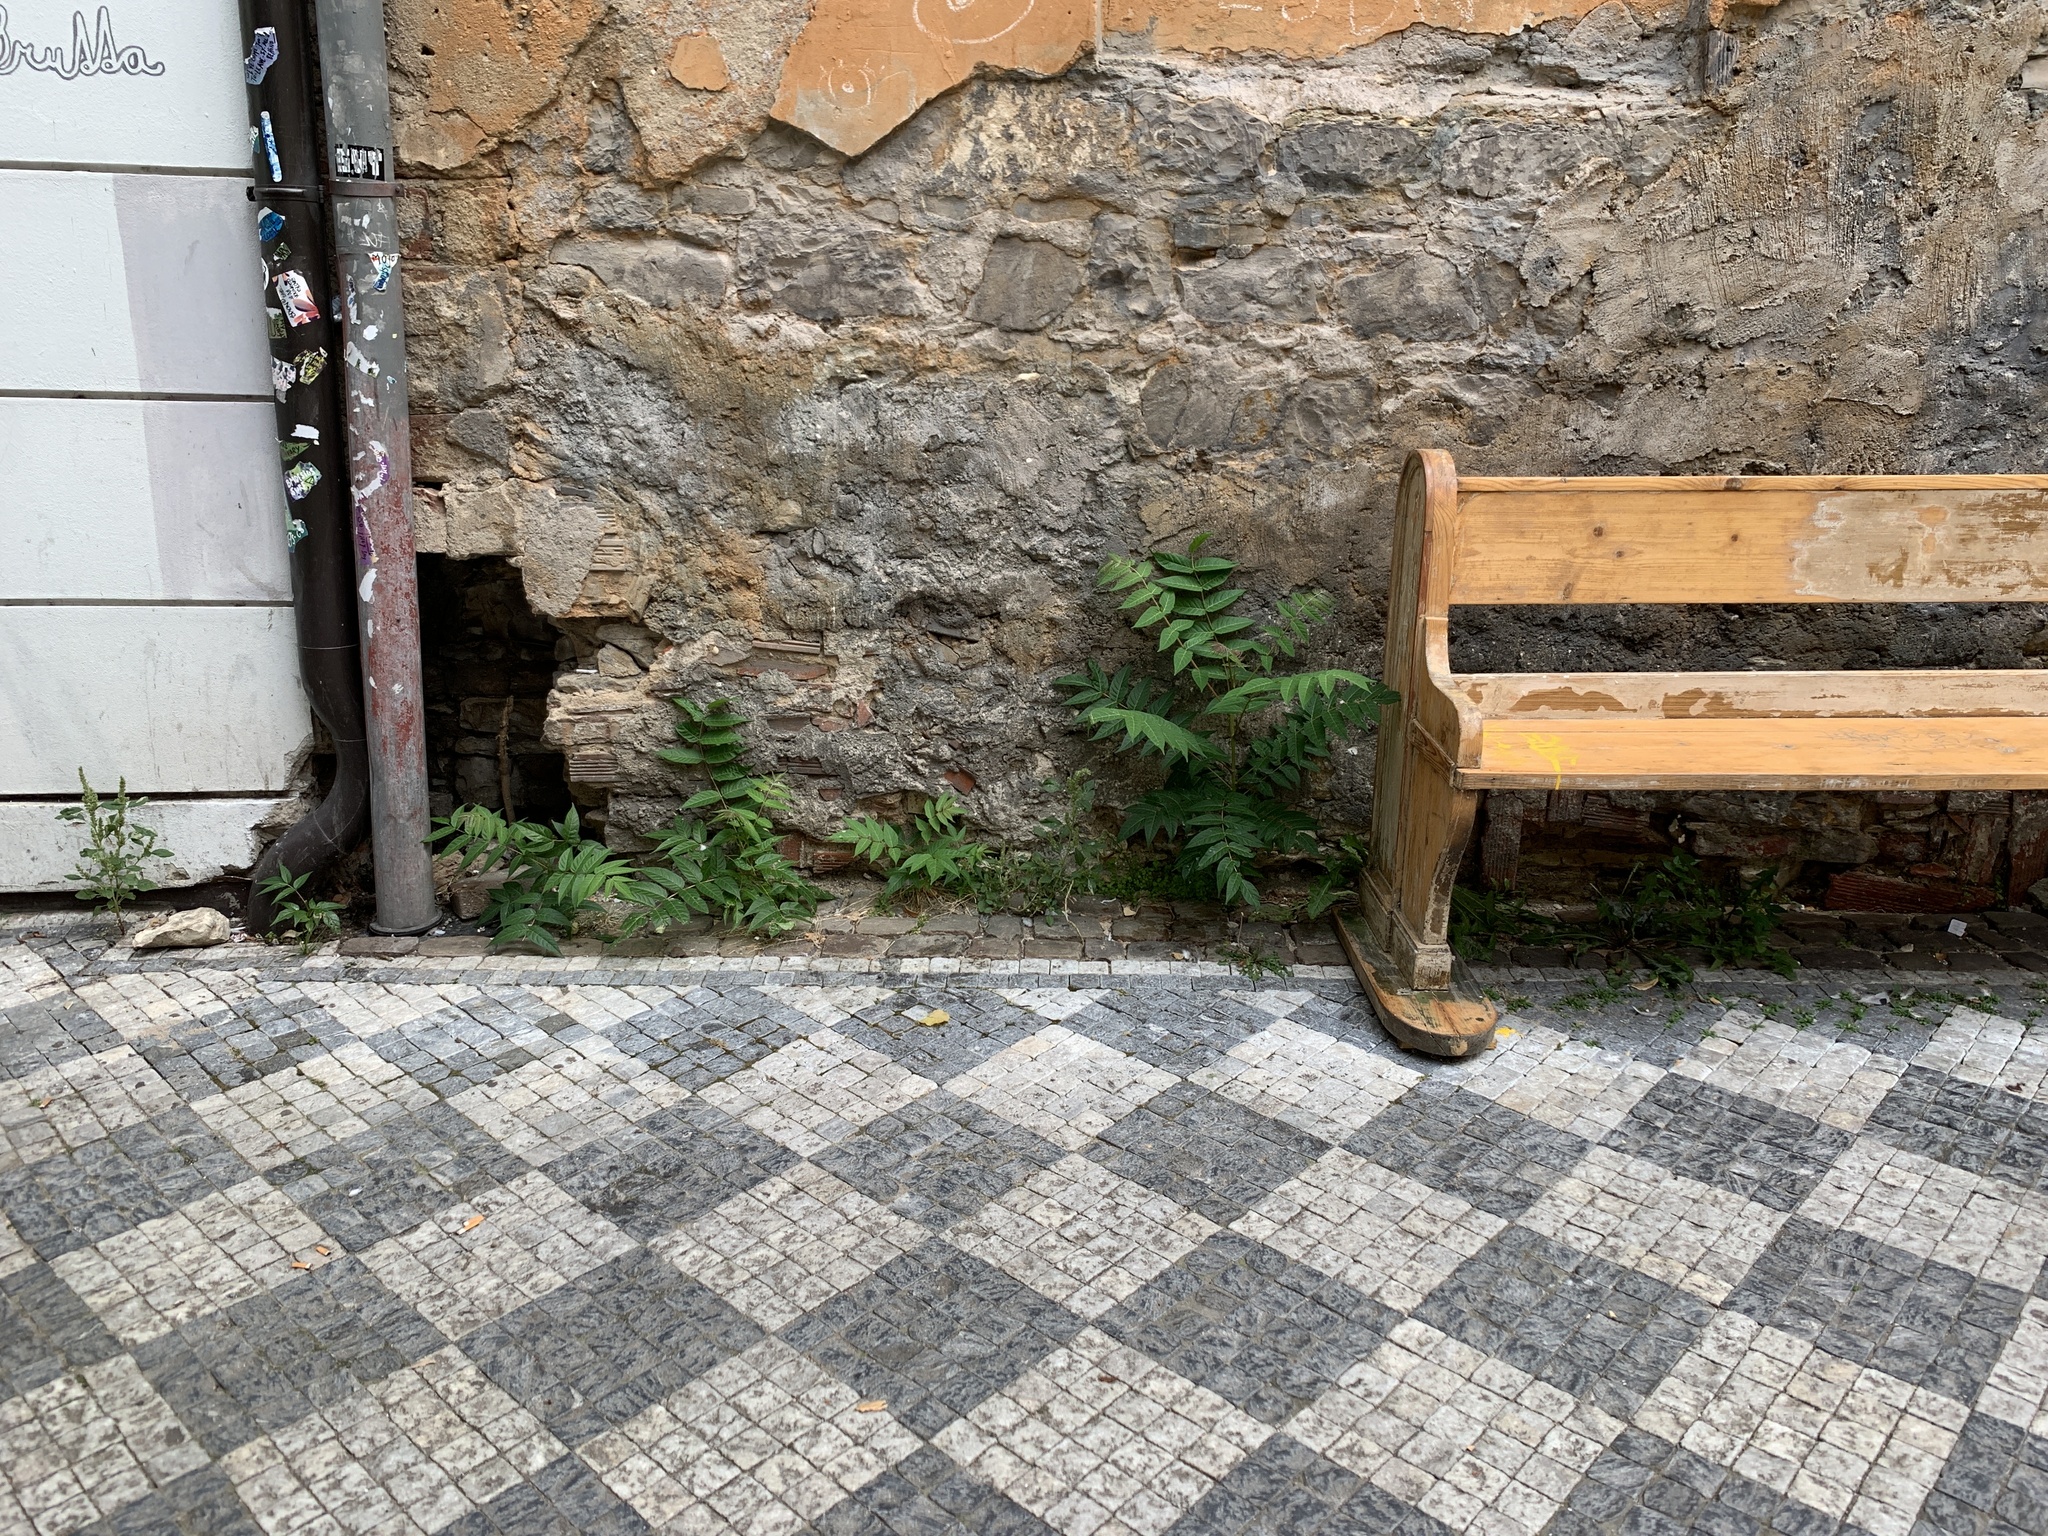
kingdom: Plantae
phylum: Tracheophyta
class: Magnoliopsida
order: Sapindales
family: Simaroubaceae
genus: Ailanthus
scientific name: Ailanthus altissima
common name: Tree-of-heaven
